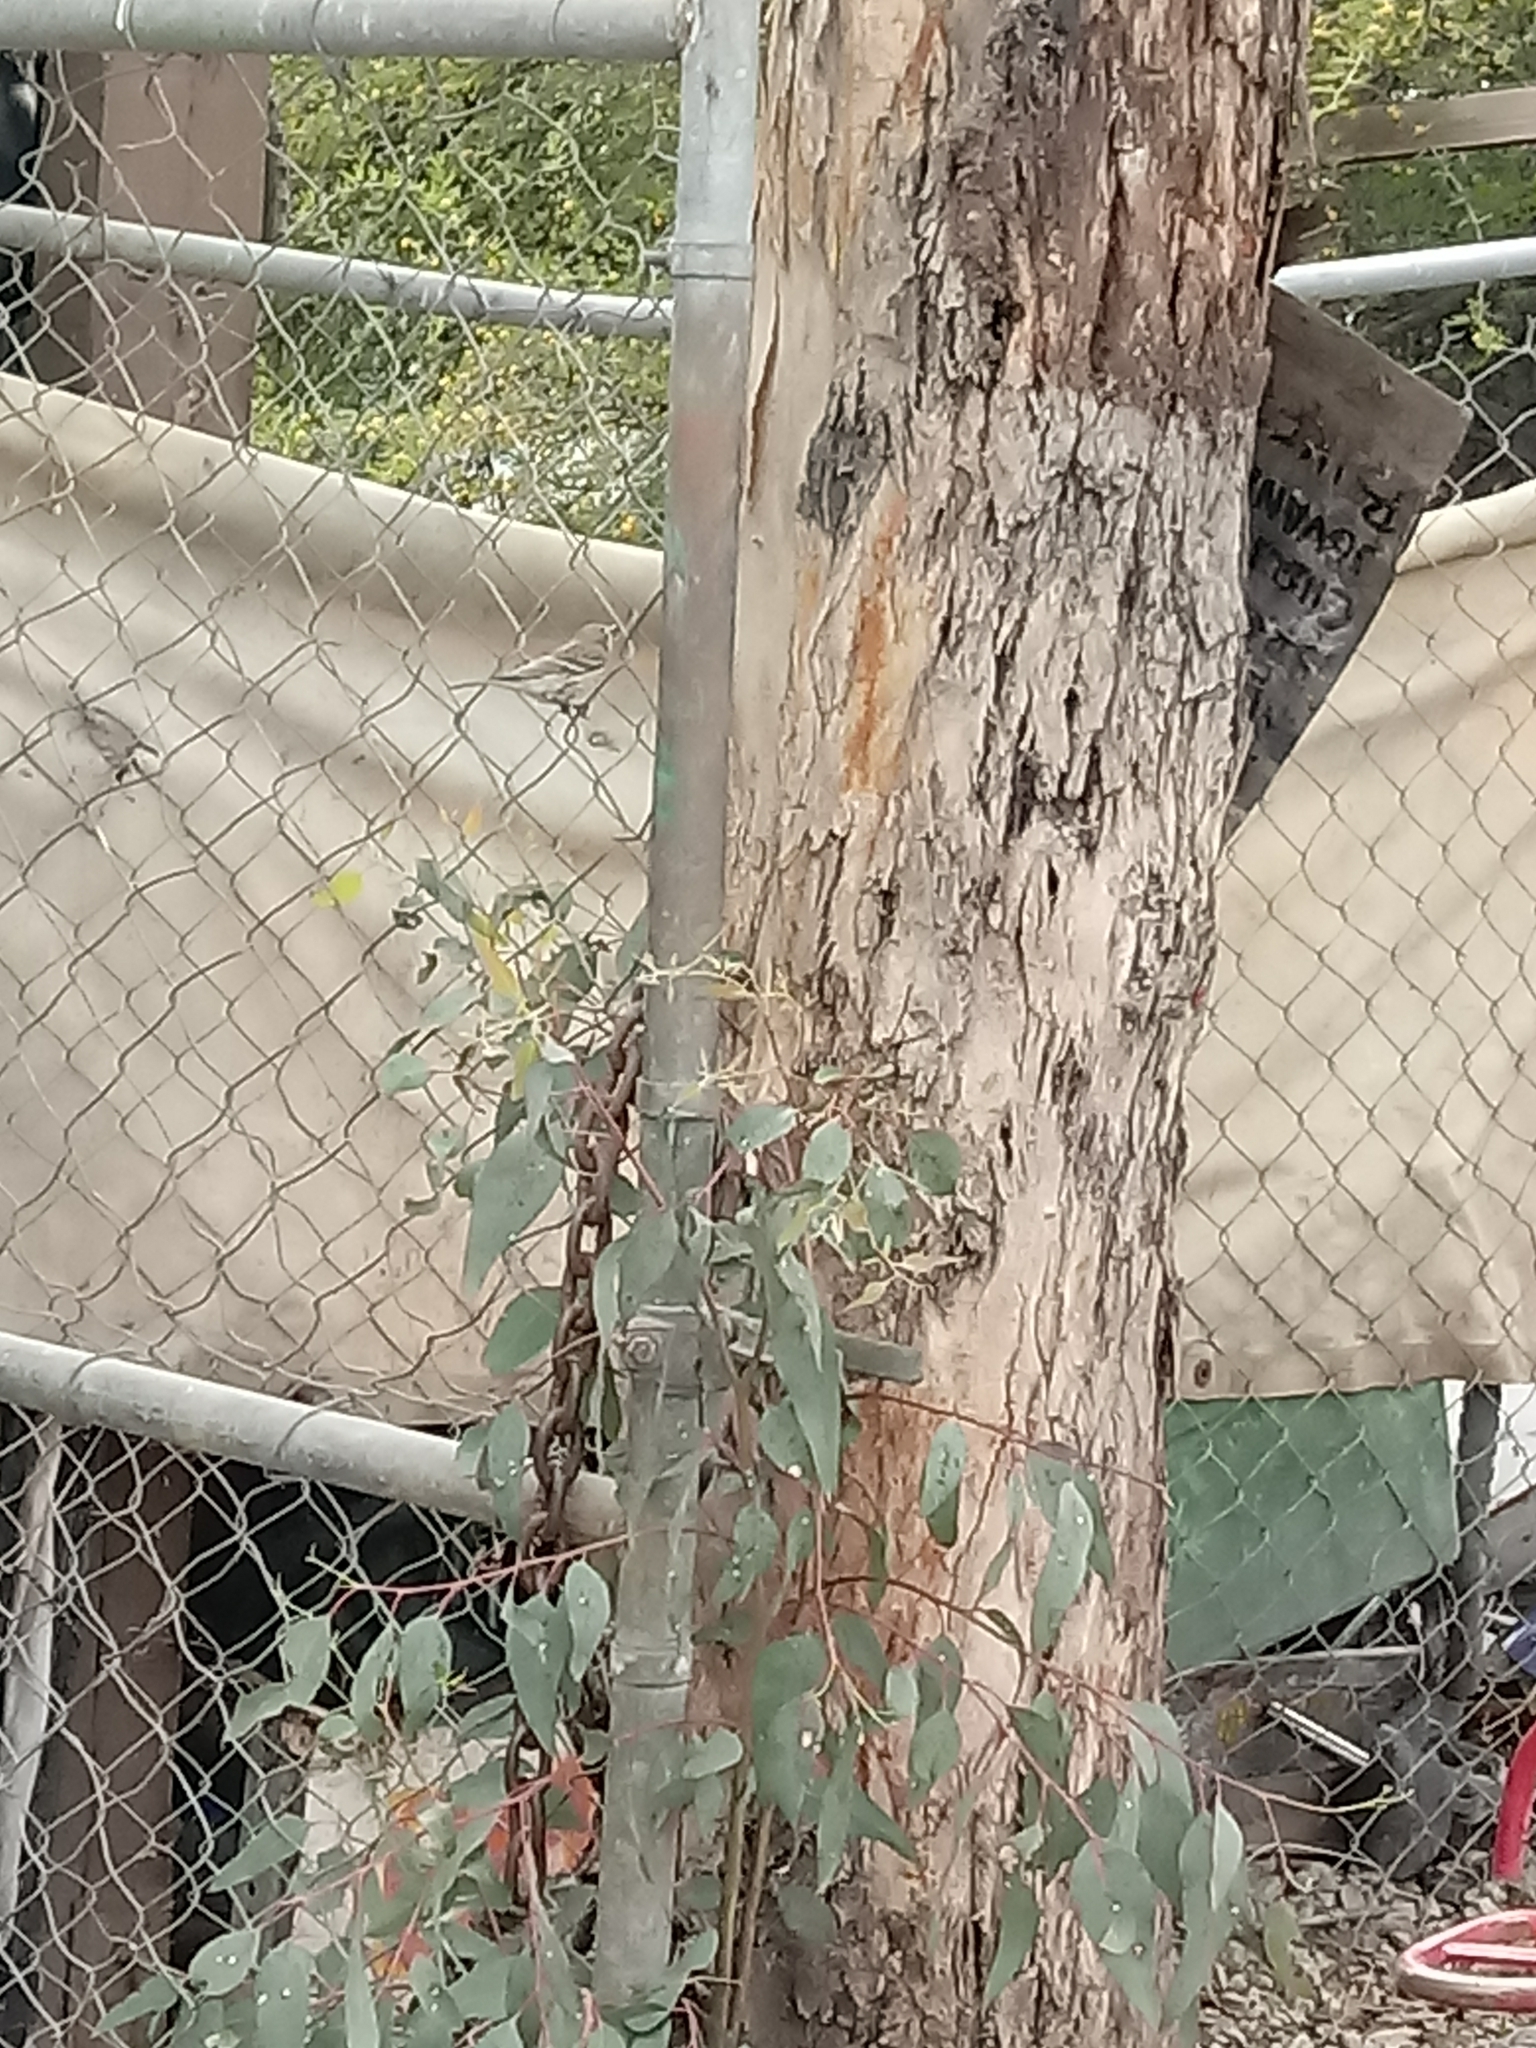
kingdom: Animalia
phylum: Chordata
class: Aves
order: Passeriformes
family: Parulidae
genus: Setophaga
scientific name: Setophaga coronata
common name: Myrtle warbler
